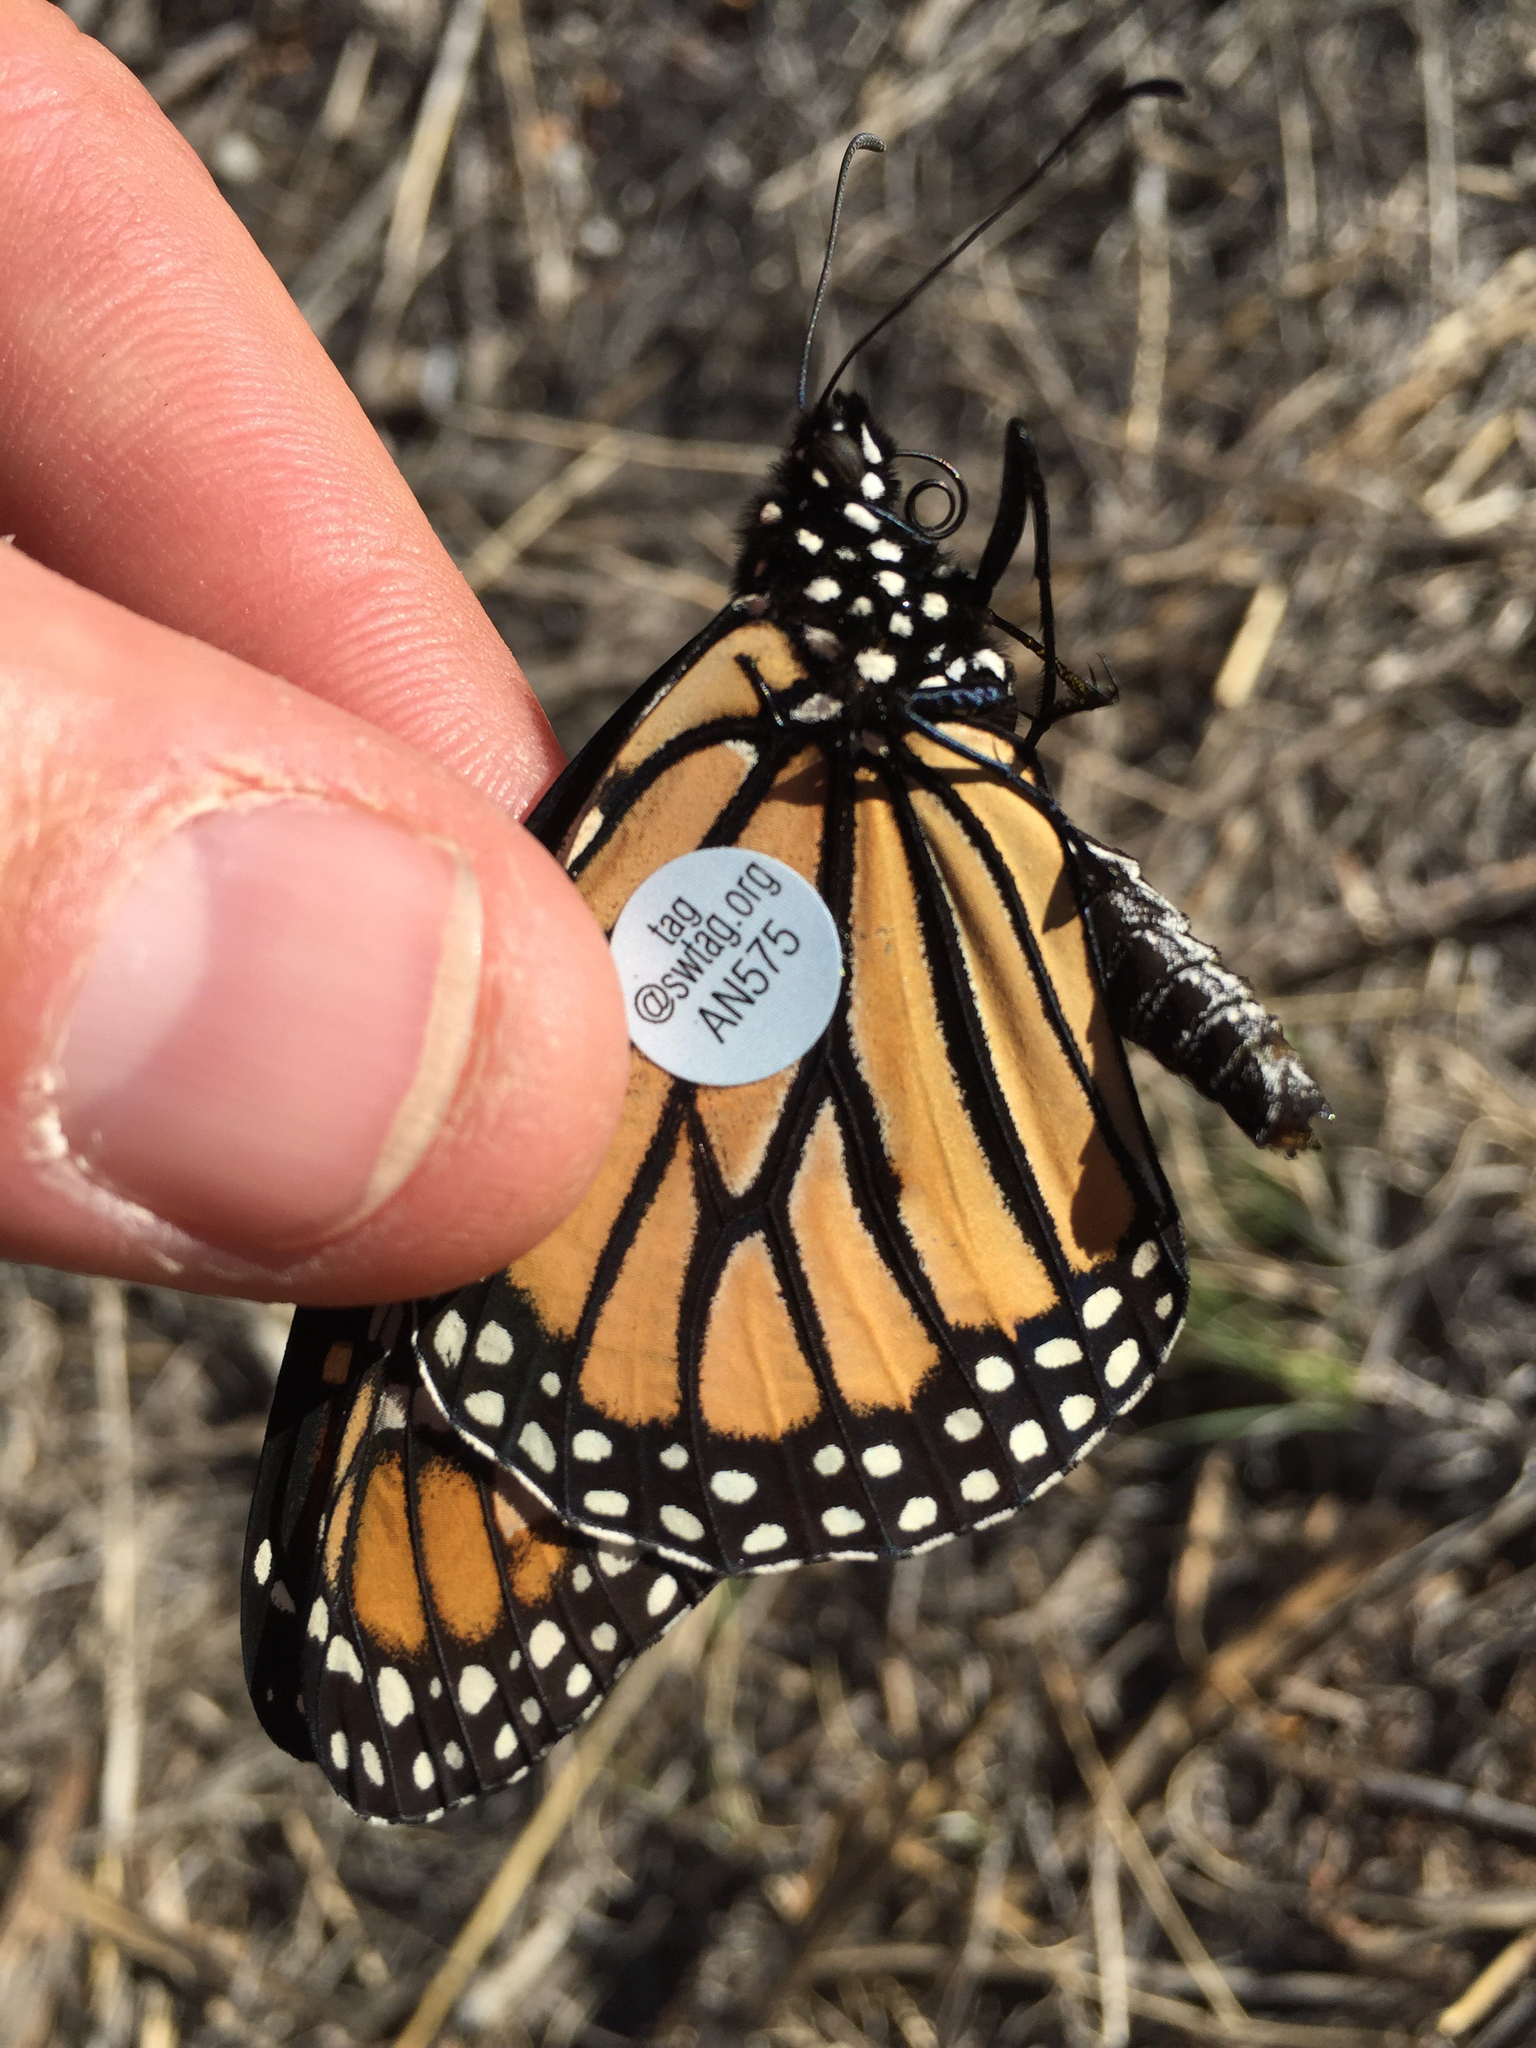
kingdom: Animalia
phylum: Arthropoda
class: Insecta
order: Lepidoptera
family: Nymphalidae
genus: Danaus
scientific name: Danaus plexippus
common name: Monarch
